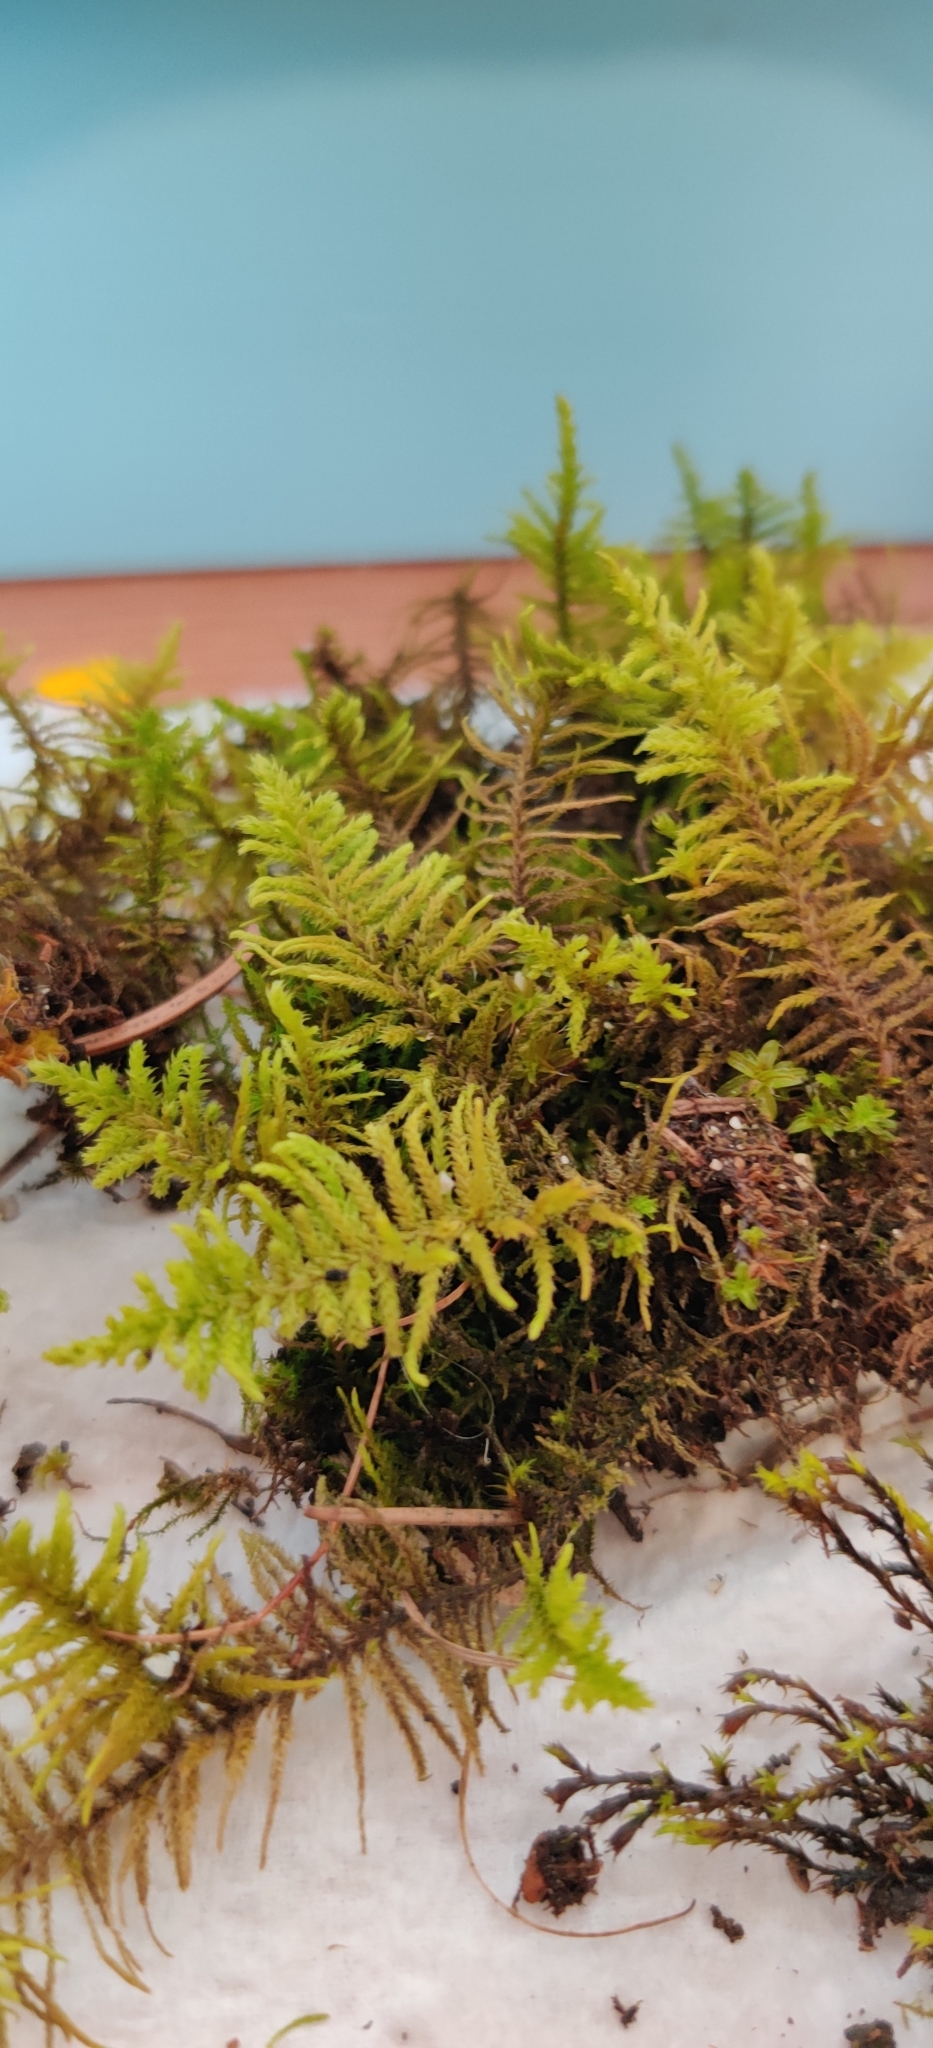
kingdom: Plantae
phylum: Bryophyta
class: Bryopsida
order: Hypnales
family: Thuidiaceae
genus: Abietinella
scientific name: Abietinella abietina
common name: Wiry fern moss
